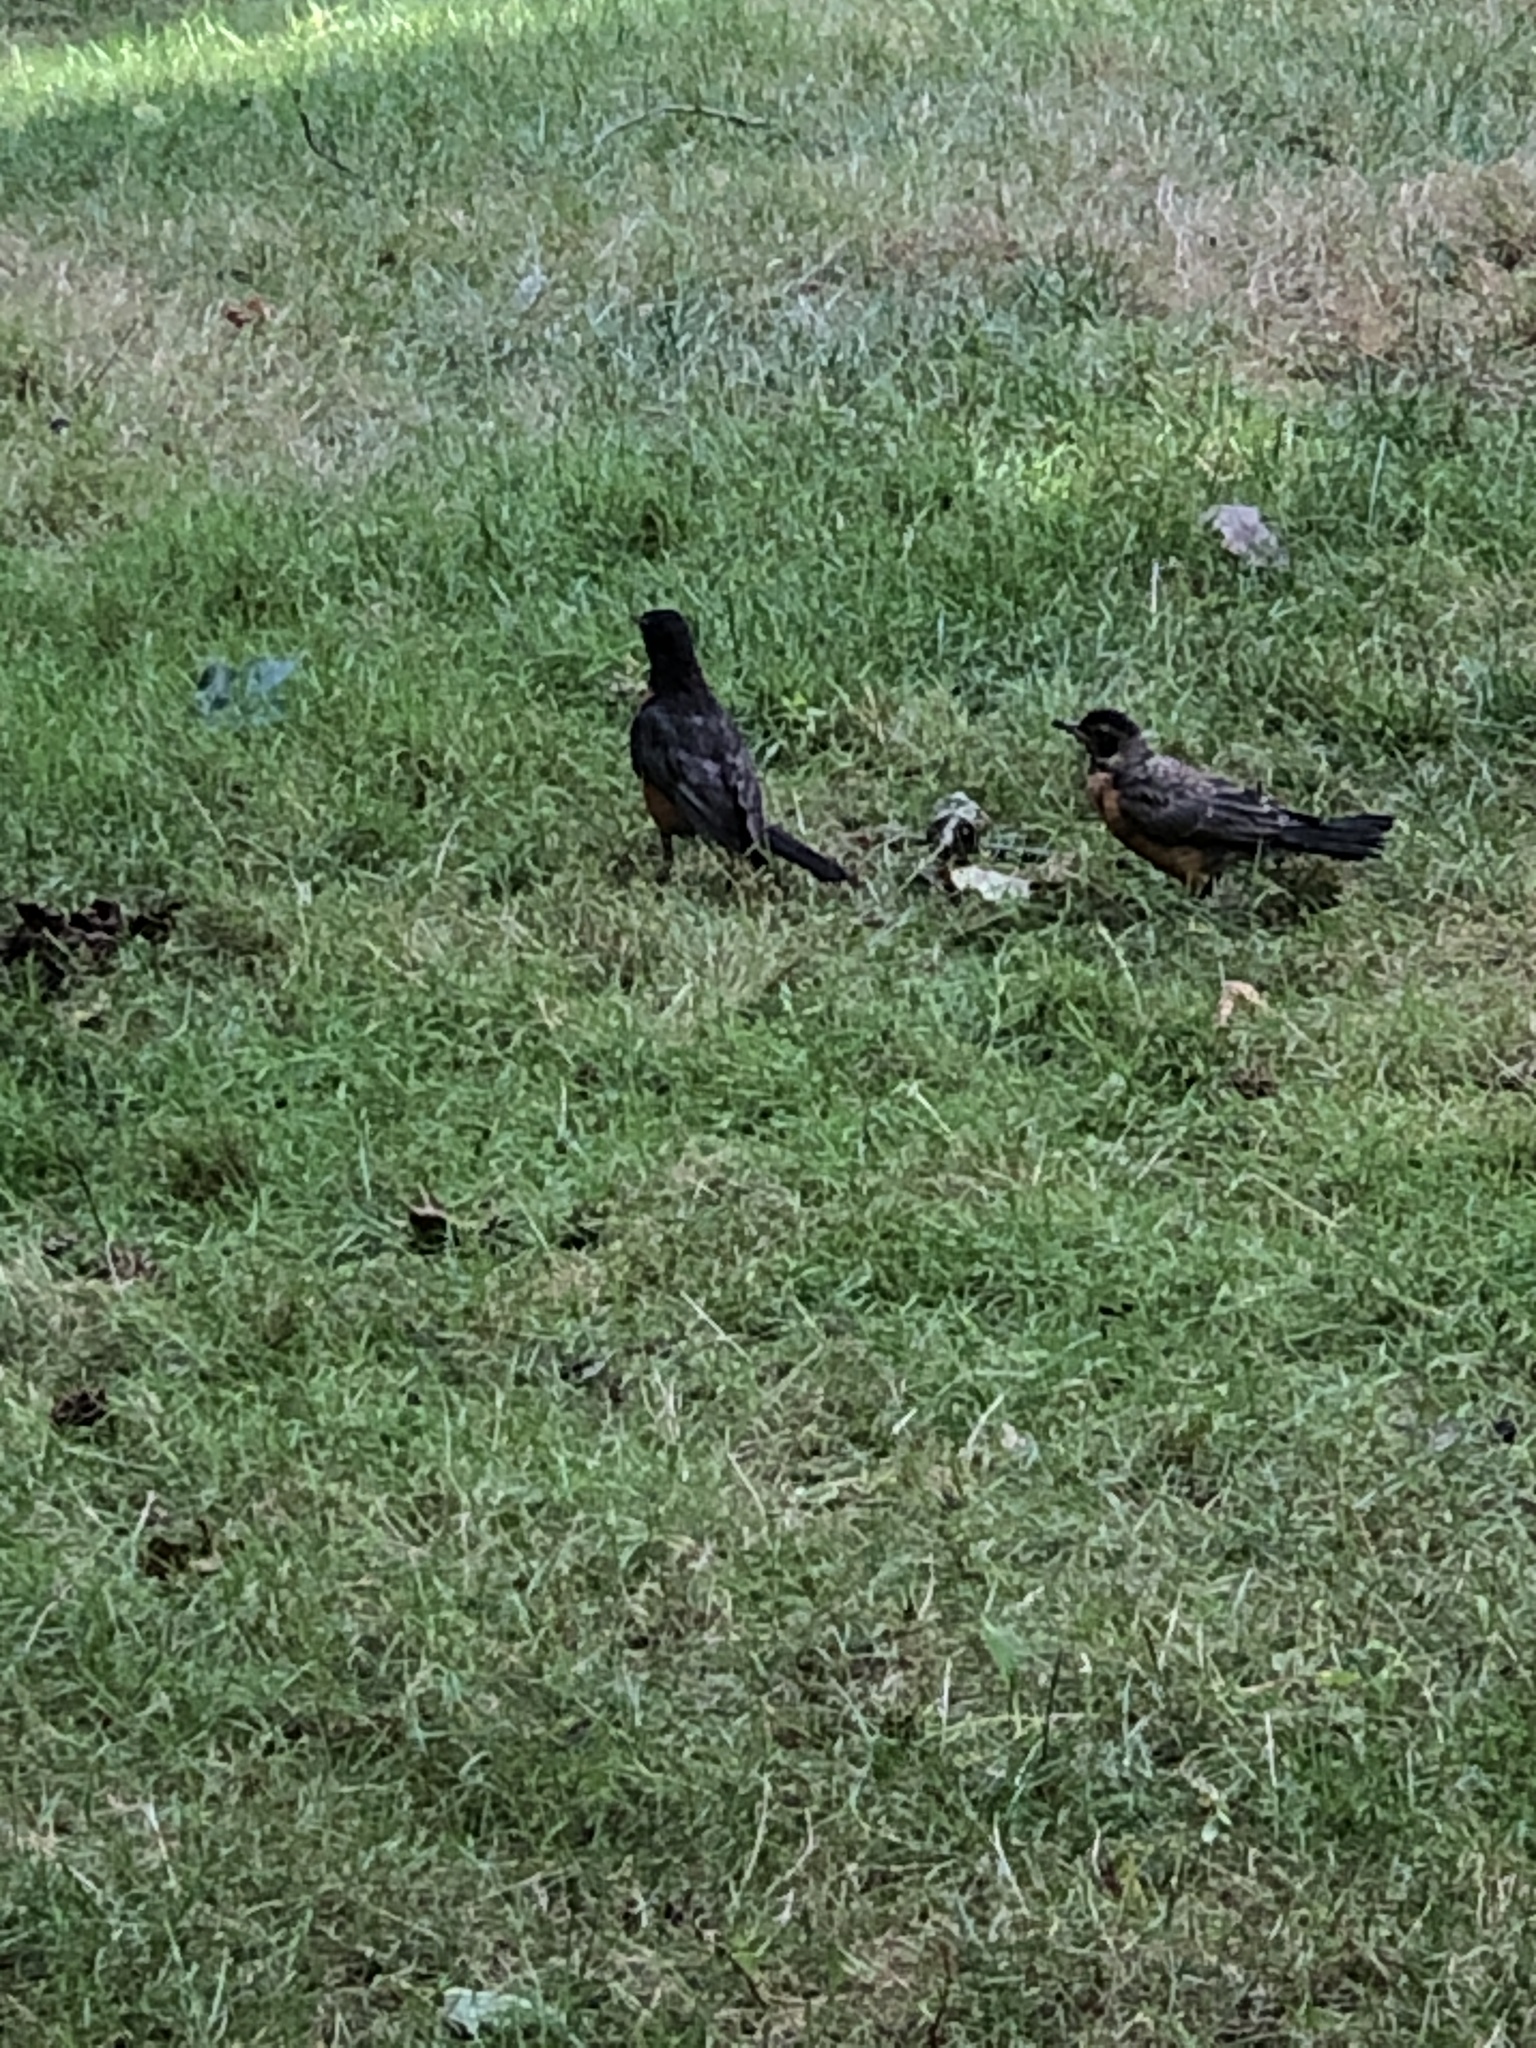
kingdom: Animalia
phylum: Chordata
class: Aves
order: Passeriformes
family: Turdidae
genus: Turdus
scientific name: Turdus migratorius
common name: American robin
